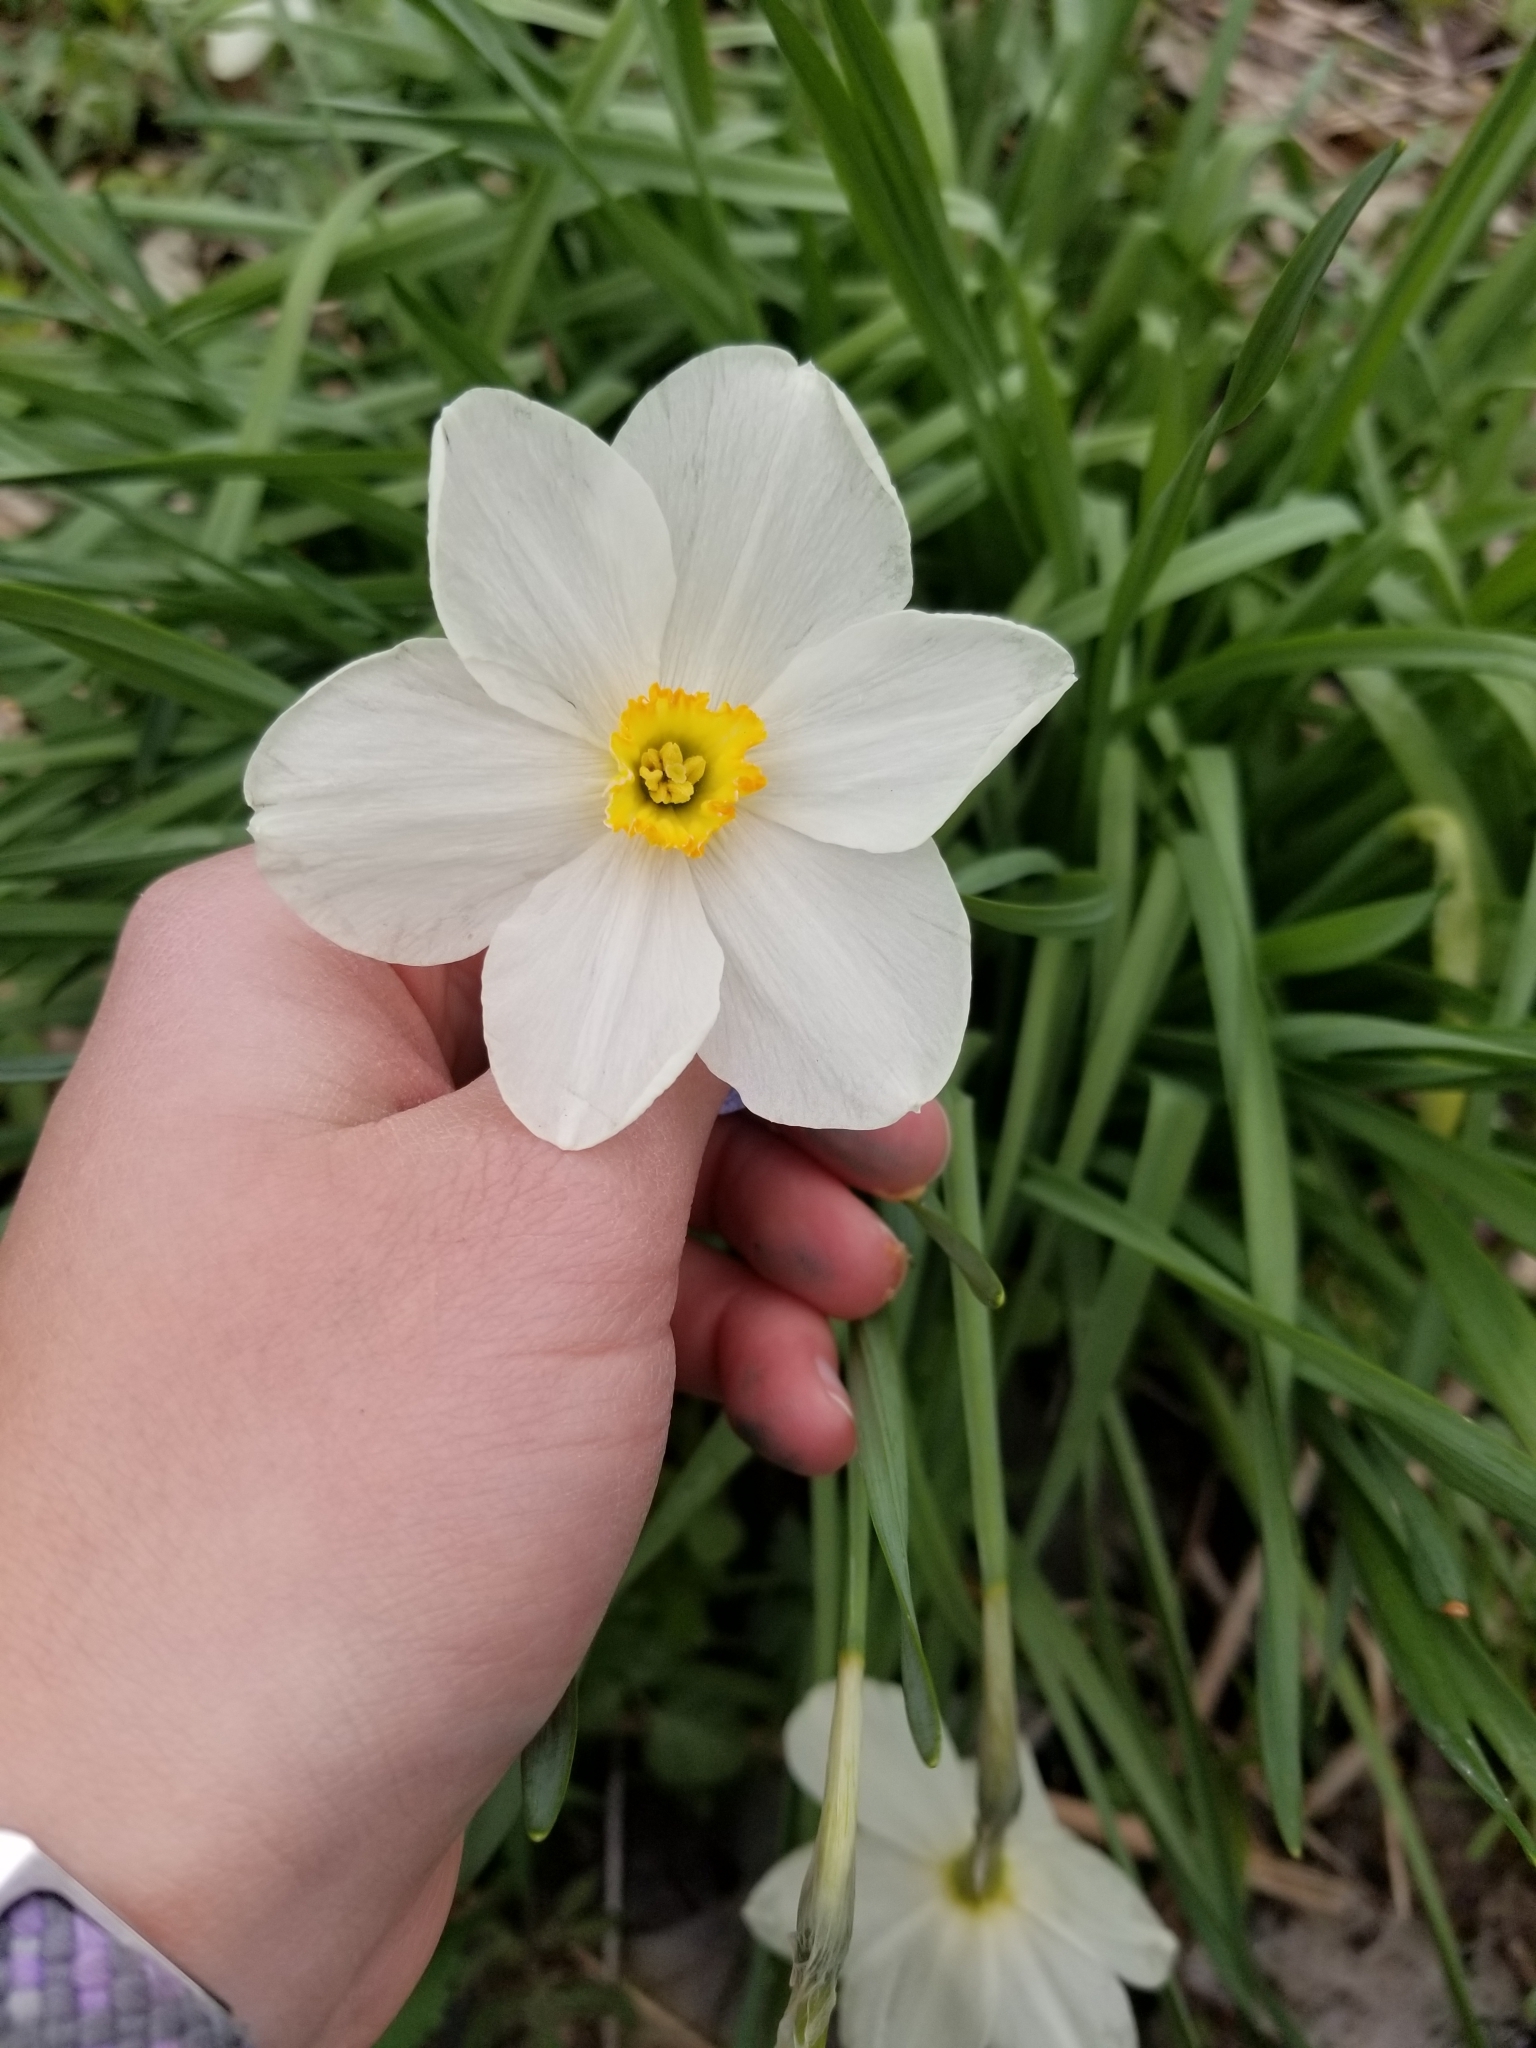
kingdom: Plantae
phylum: Tracheophyta
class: Liliopsida
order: Asparagales
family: Amaryllidaceae
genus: Narcissus
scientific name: Narcissus poeticus
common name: Pheasant's-eye daffodil
